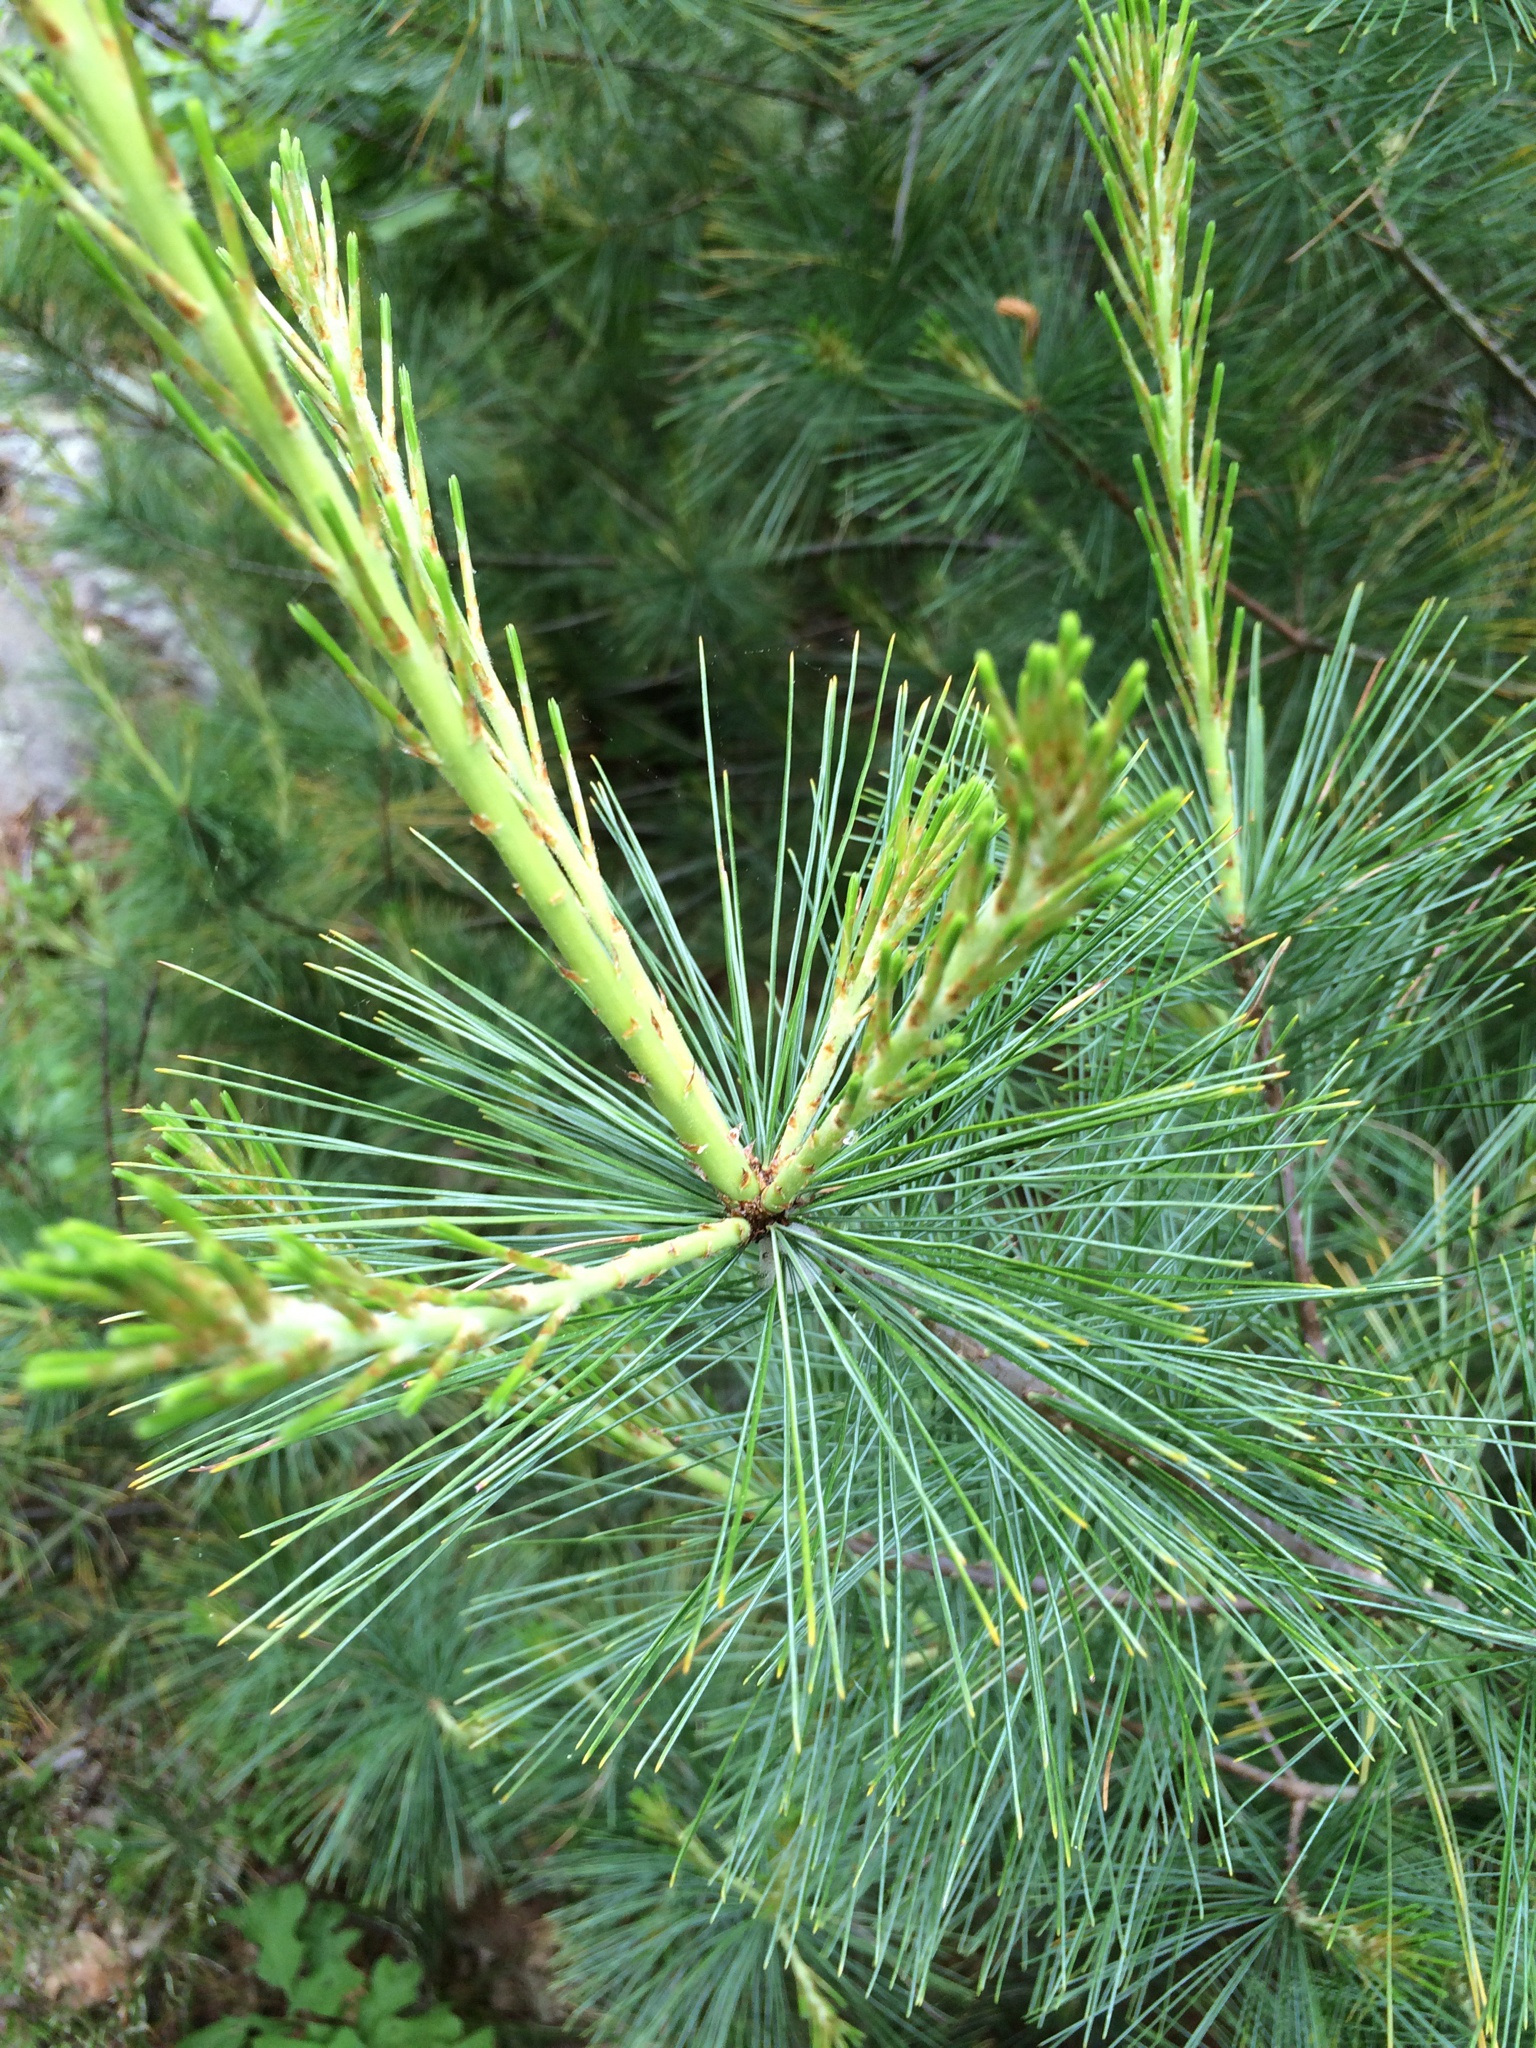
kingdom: Plantae
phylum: Tracheophyta
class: Pinopsida
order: Pinales
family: Pinaceae
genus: Pinus
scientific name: Pinus strobus
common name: Weymouth pine
